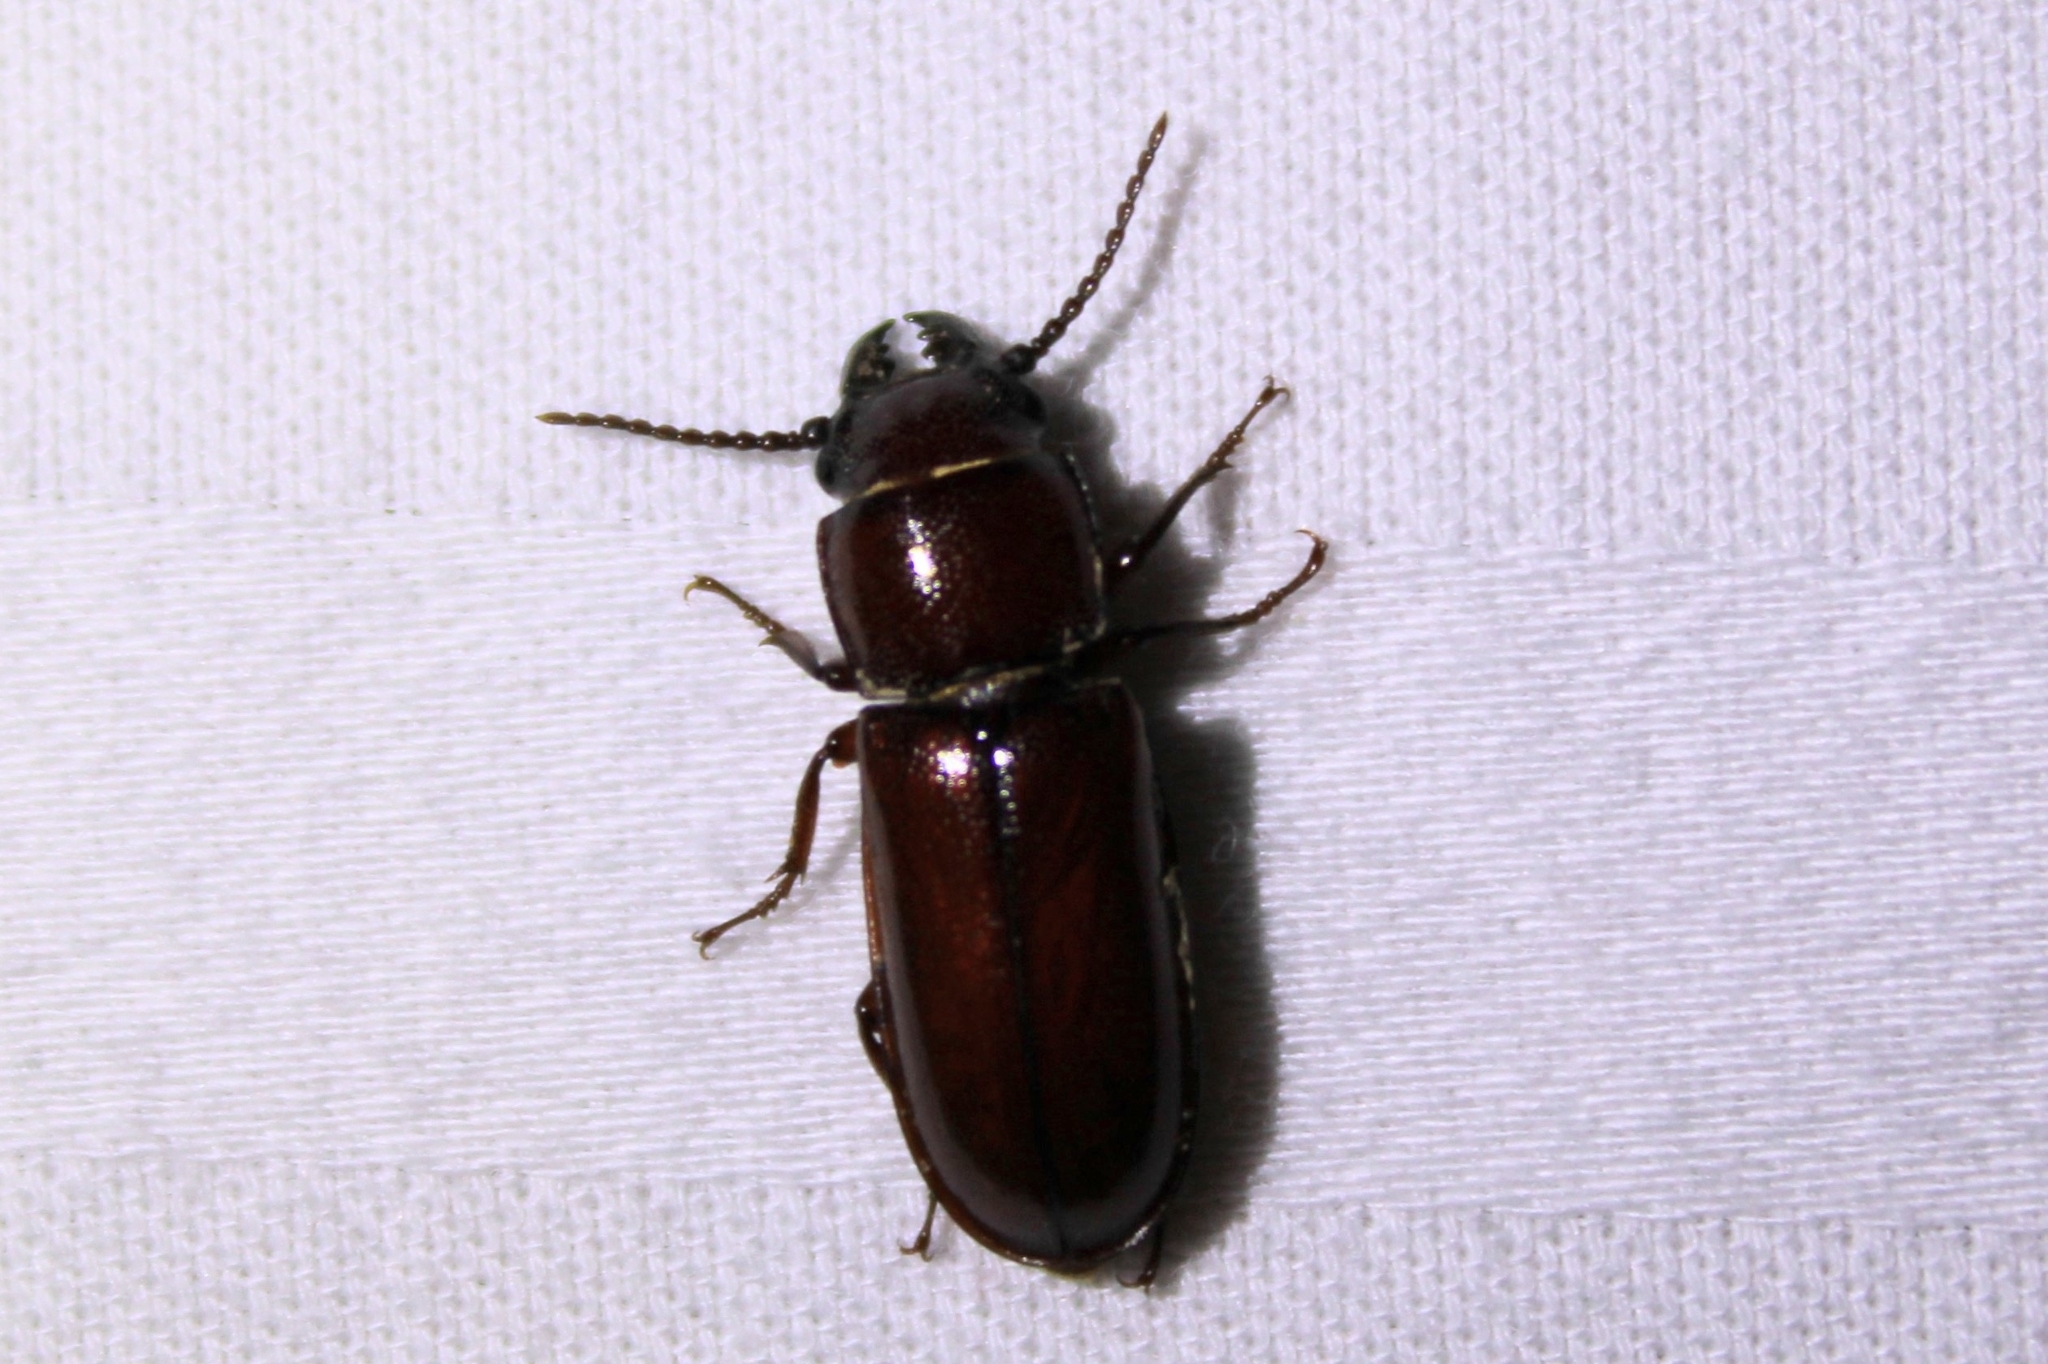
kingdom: Animalia
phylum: Arthropoda
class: Insecta
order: Coleoptera
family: Cerambycidae
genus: Neandra
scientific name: Neandra brunnea
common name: Pole borer
